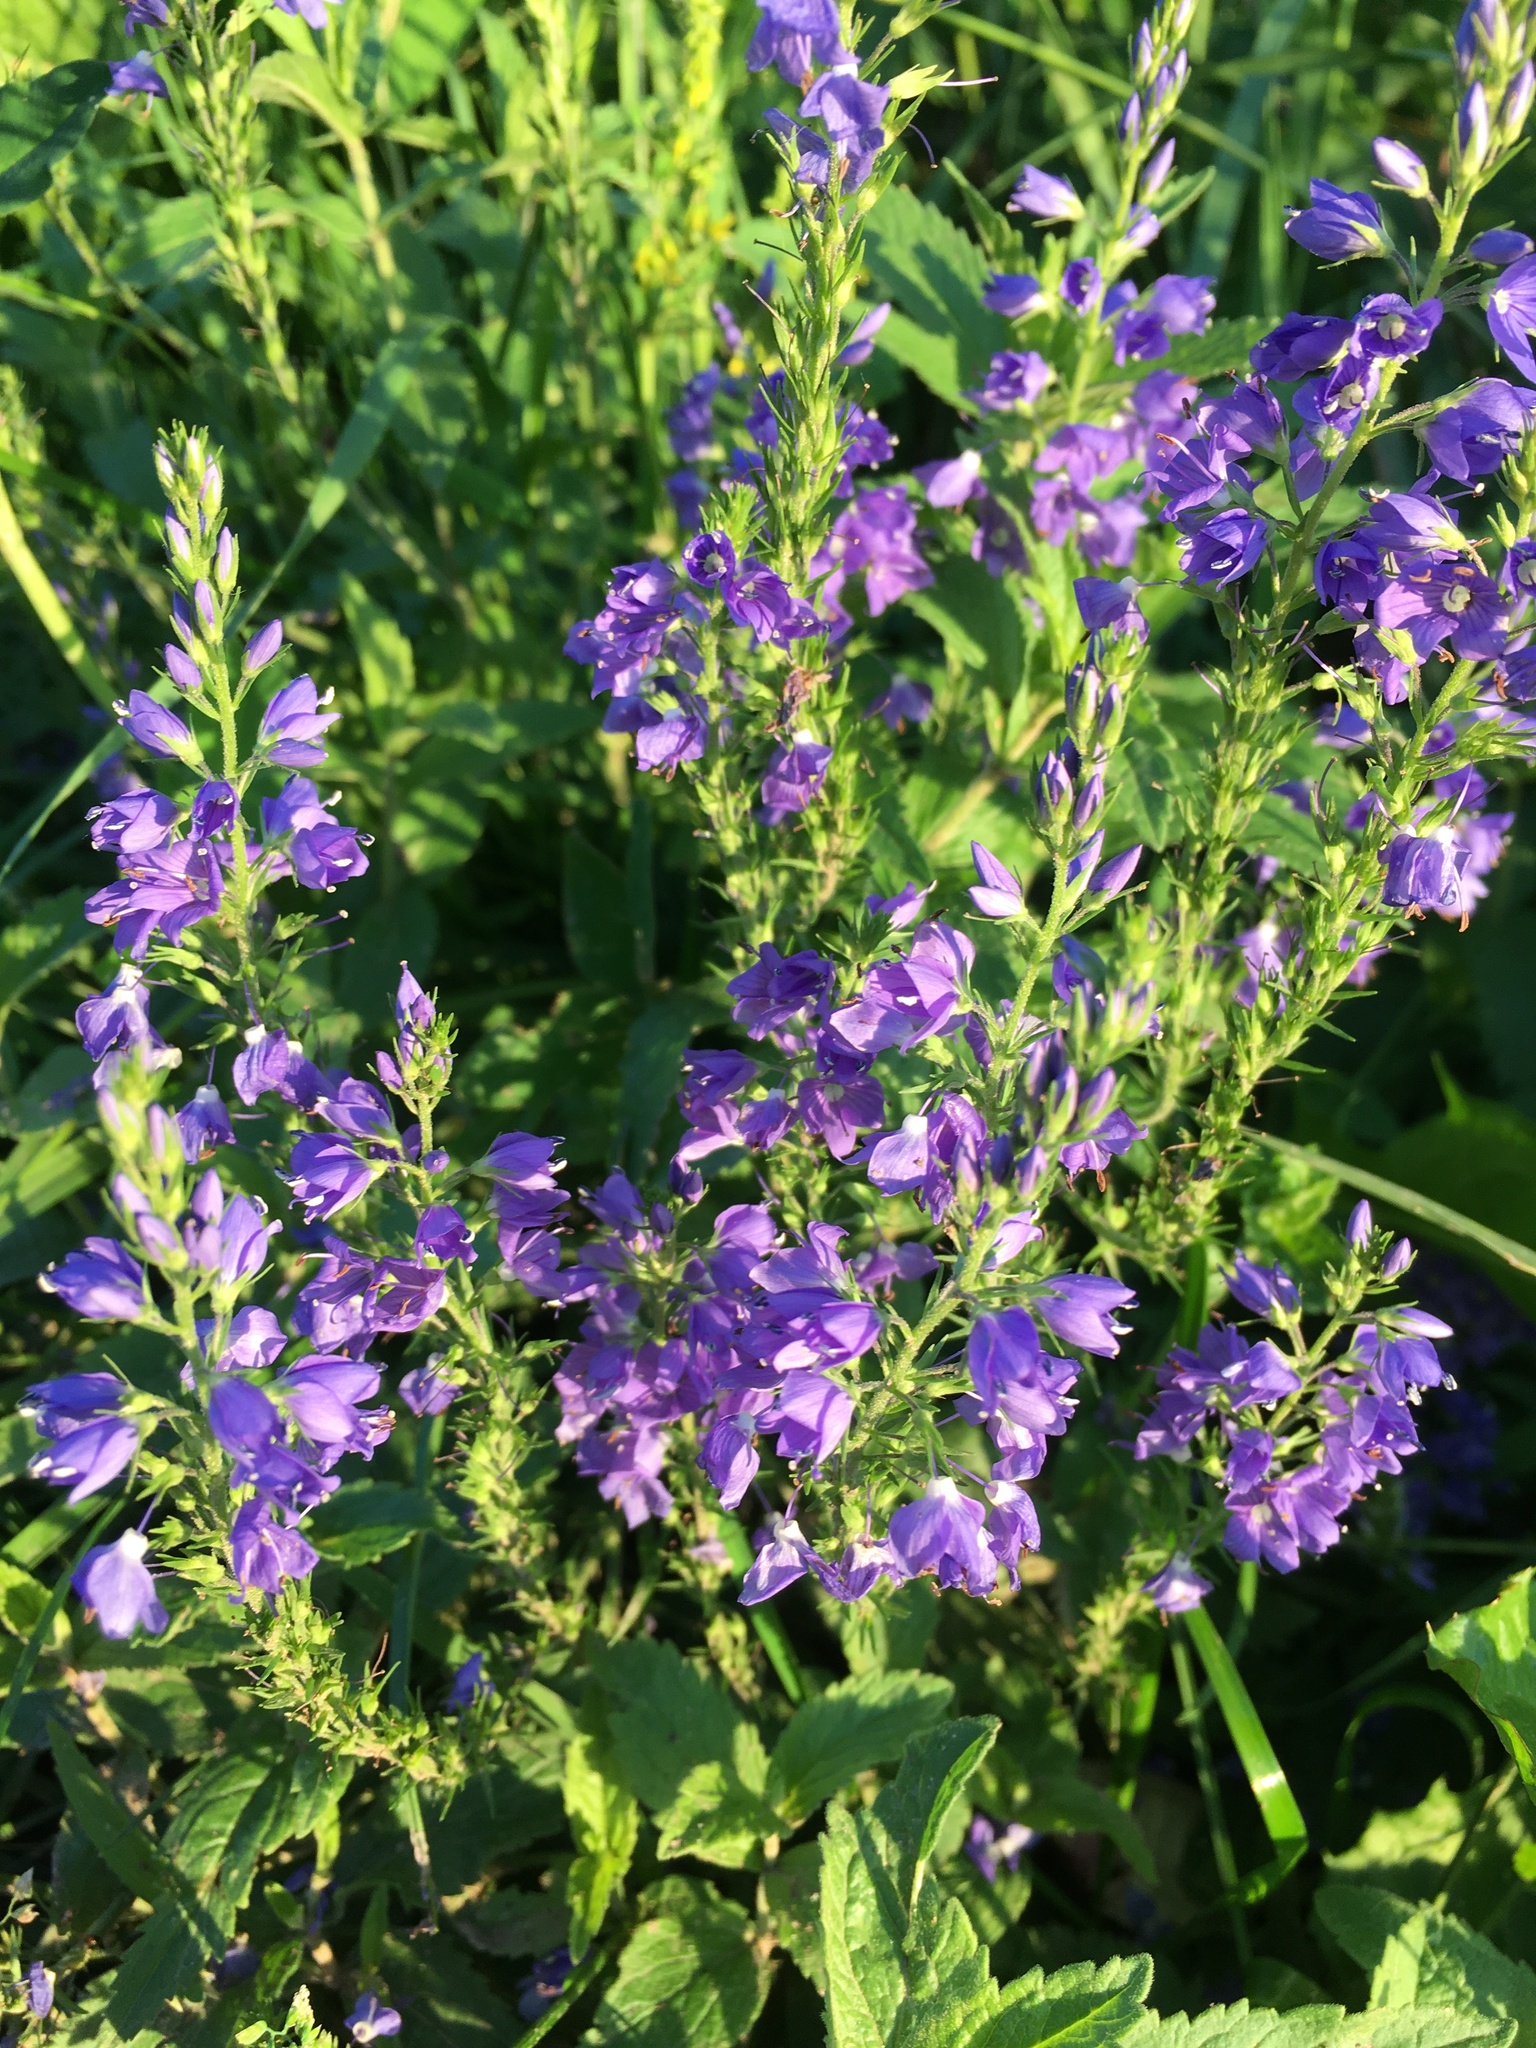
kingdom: Plantae
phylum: Tracheophyta
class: Magnoliopsida
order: Lamiales
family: Plantaginaceae
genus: Veronica
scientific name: Veronica teucrium
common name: Large speedwell
